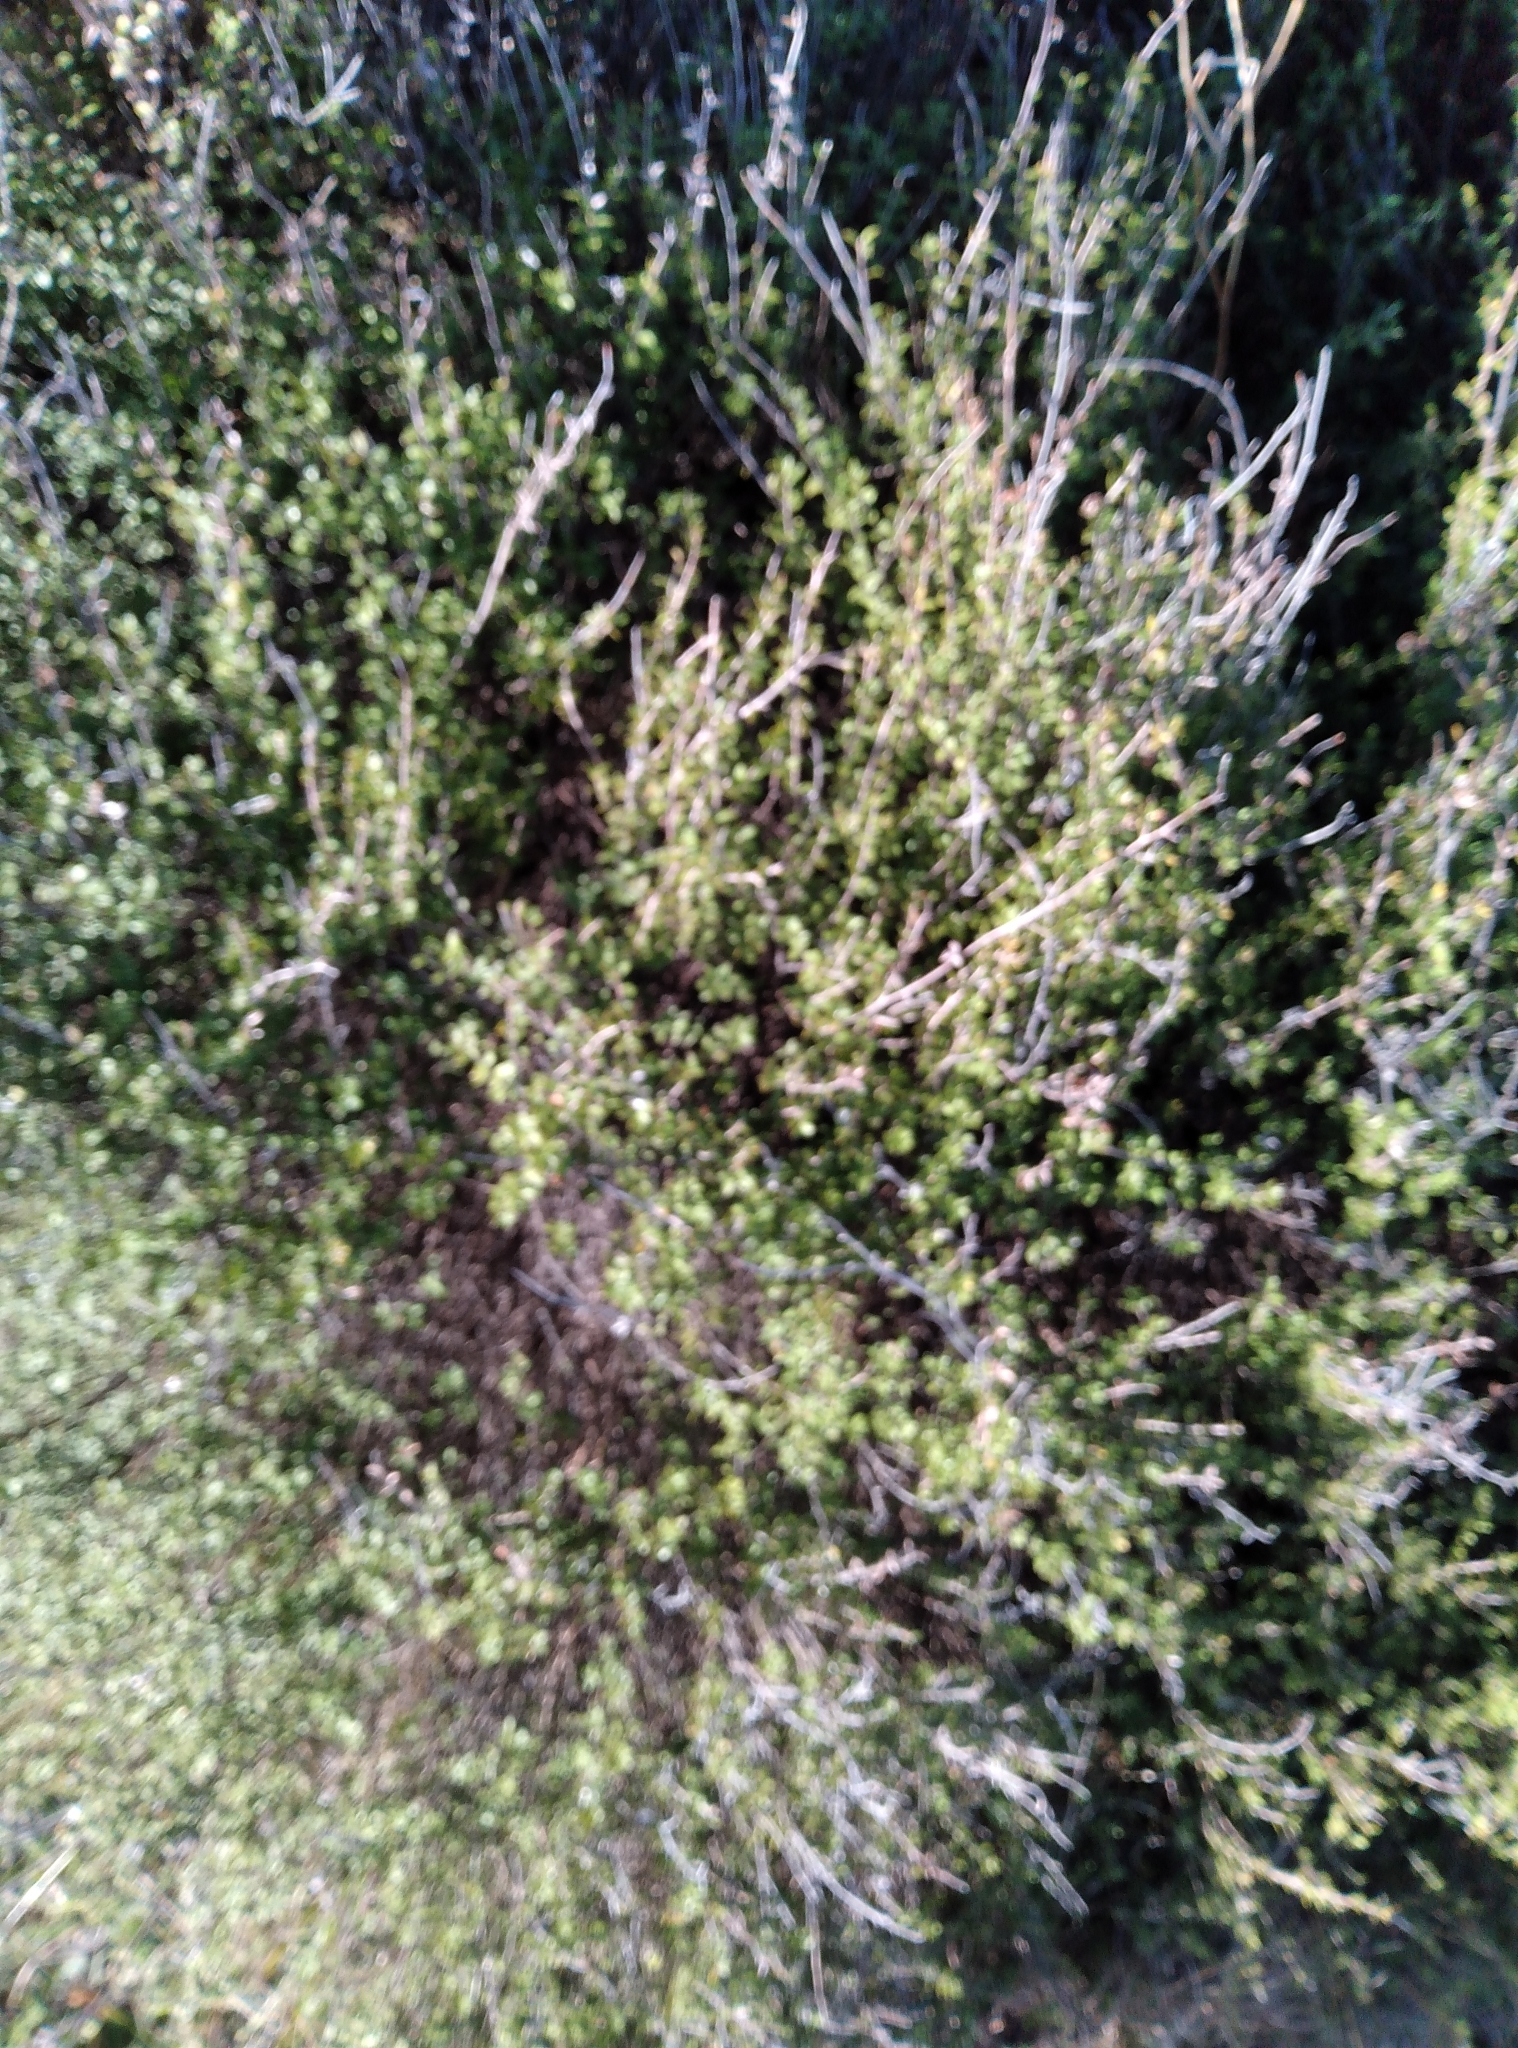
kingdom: Plantae
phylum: Tracheophyta
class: Magnoliopsida
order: Myrtales
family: Myrtaceae
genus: Leptospermum
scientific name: Leptospermum scoparium
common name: Broom tea-tree
